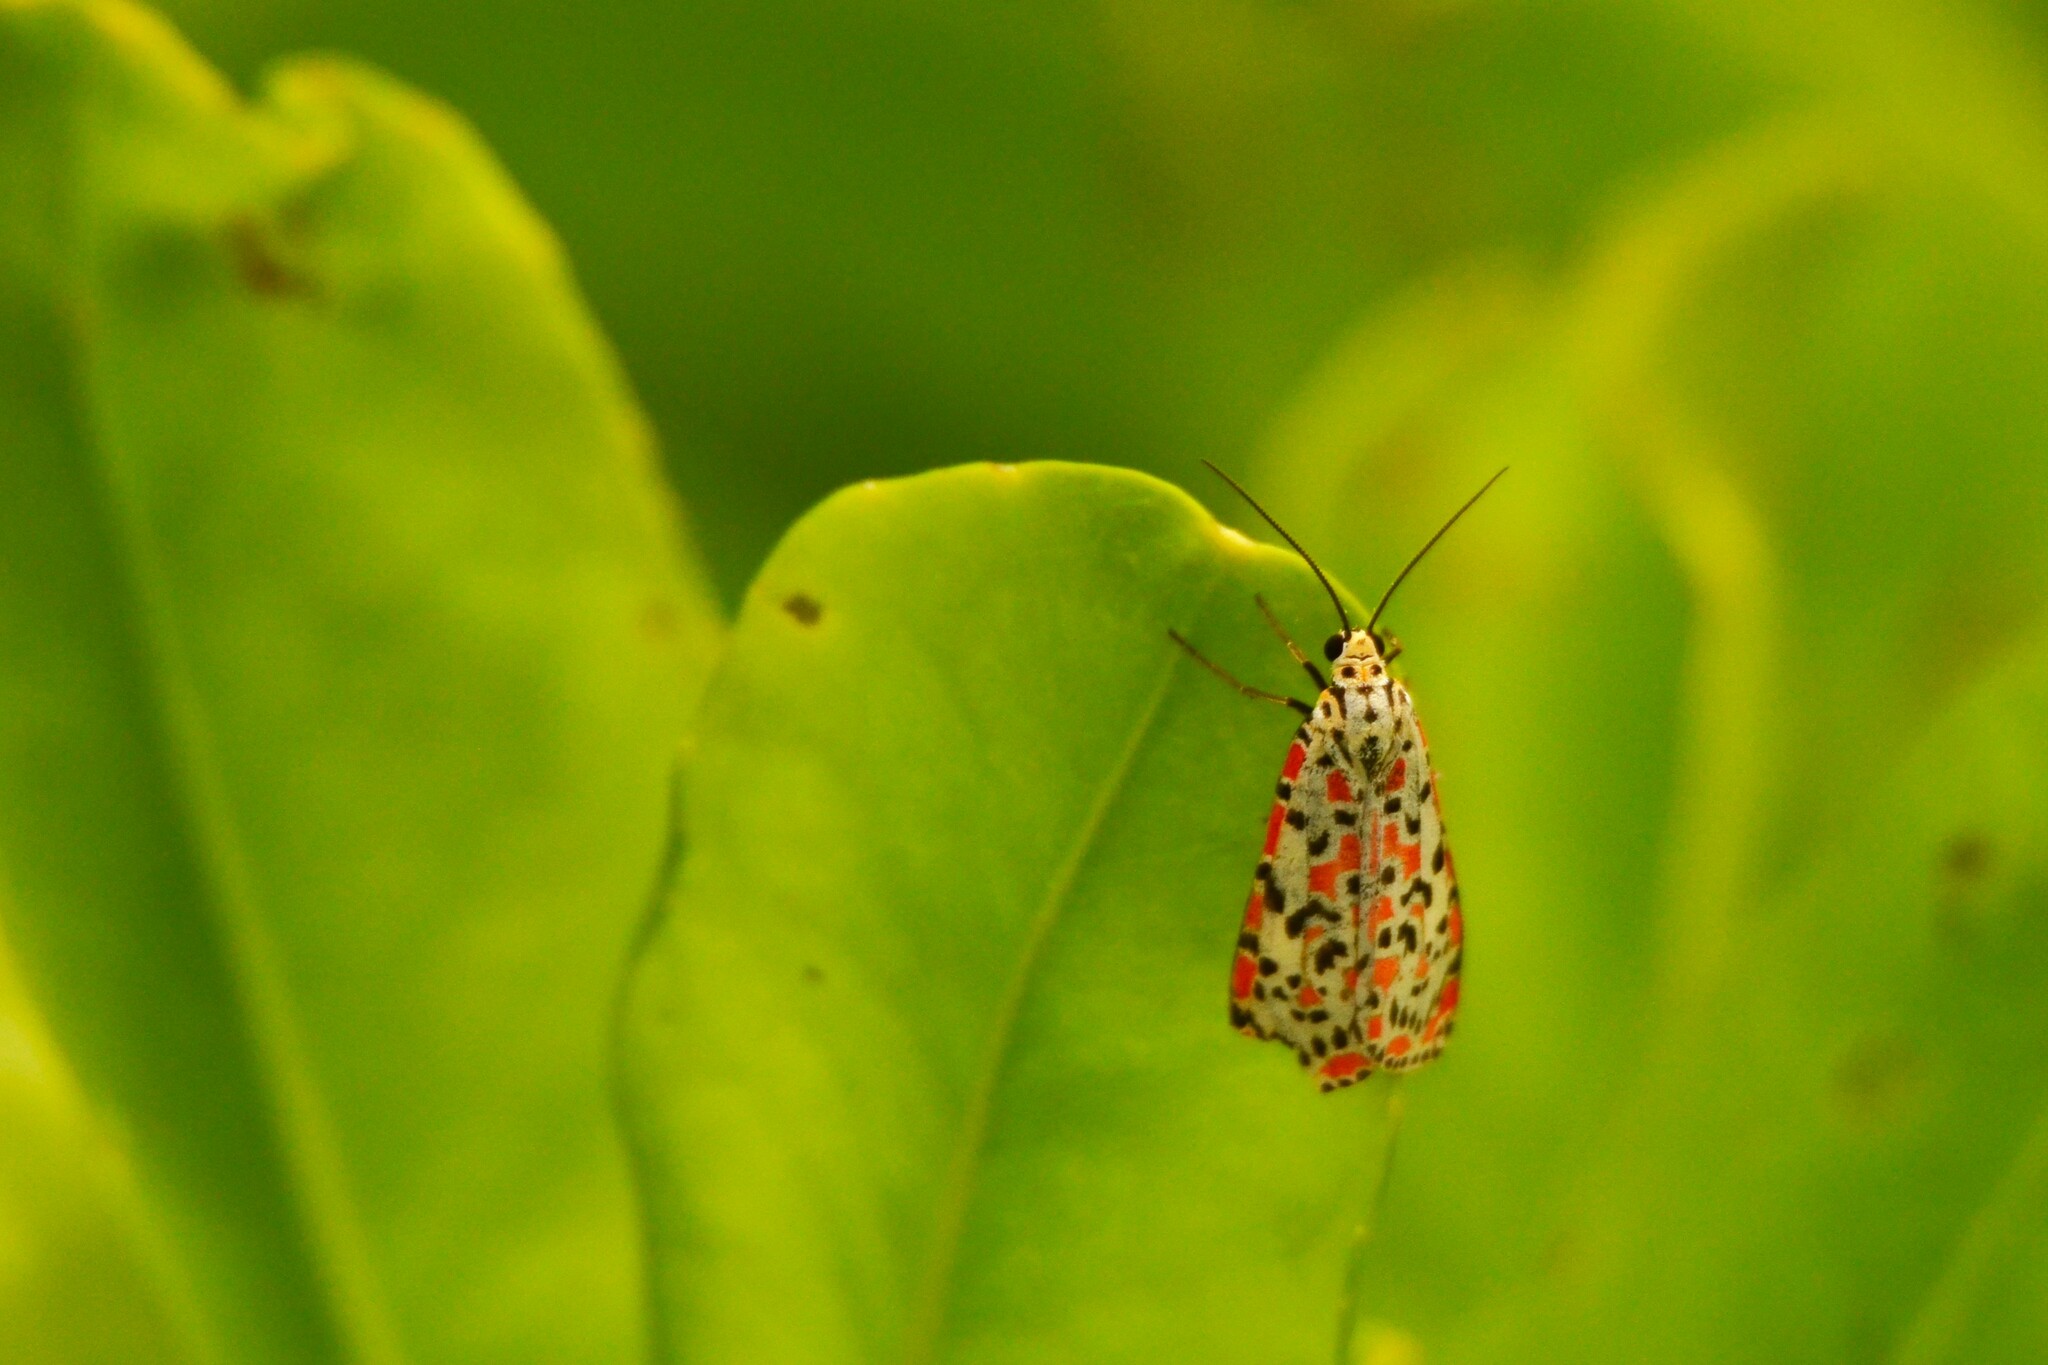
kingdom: Animalia
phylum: Arthropoda
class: Insecta
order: Lepidoptera
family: Erebidae
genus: Utetheisa
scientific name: Utetheisa pulchelloides
